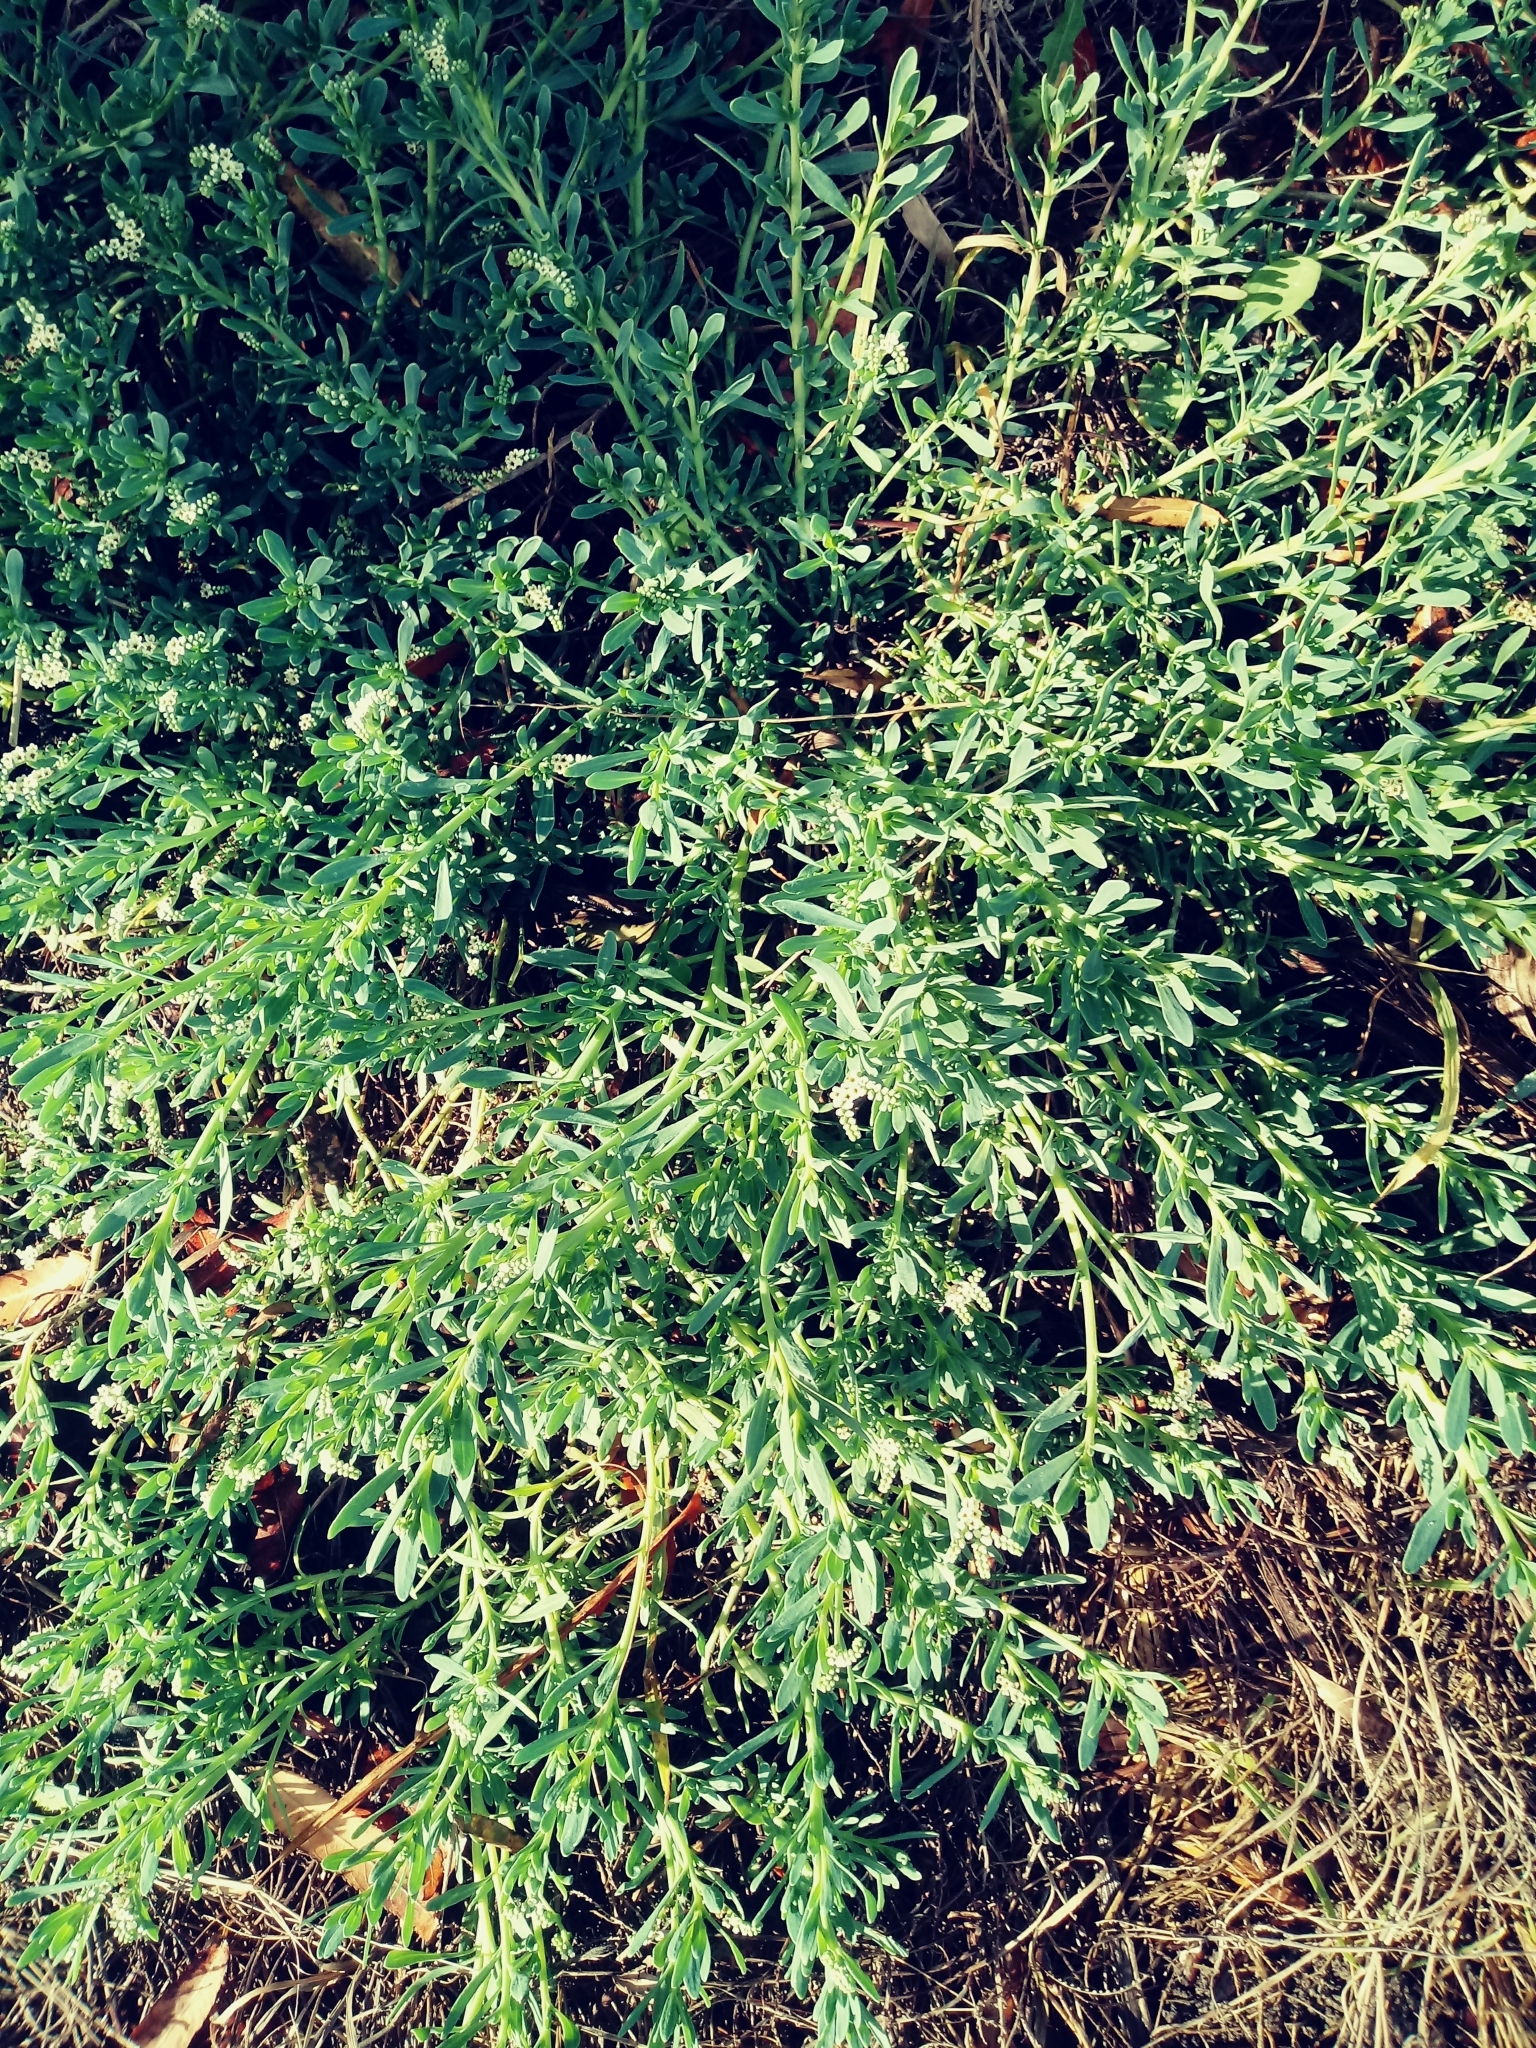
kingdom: Plantae
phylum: Tracheophyta
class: Magnoliopsida
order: Boraginales
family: Heliotropiaceae
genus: Heliotropium
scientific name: Heliotropium curassavicum
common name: Seaside heliotrope
